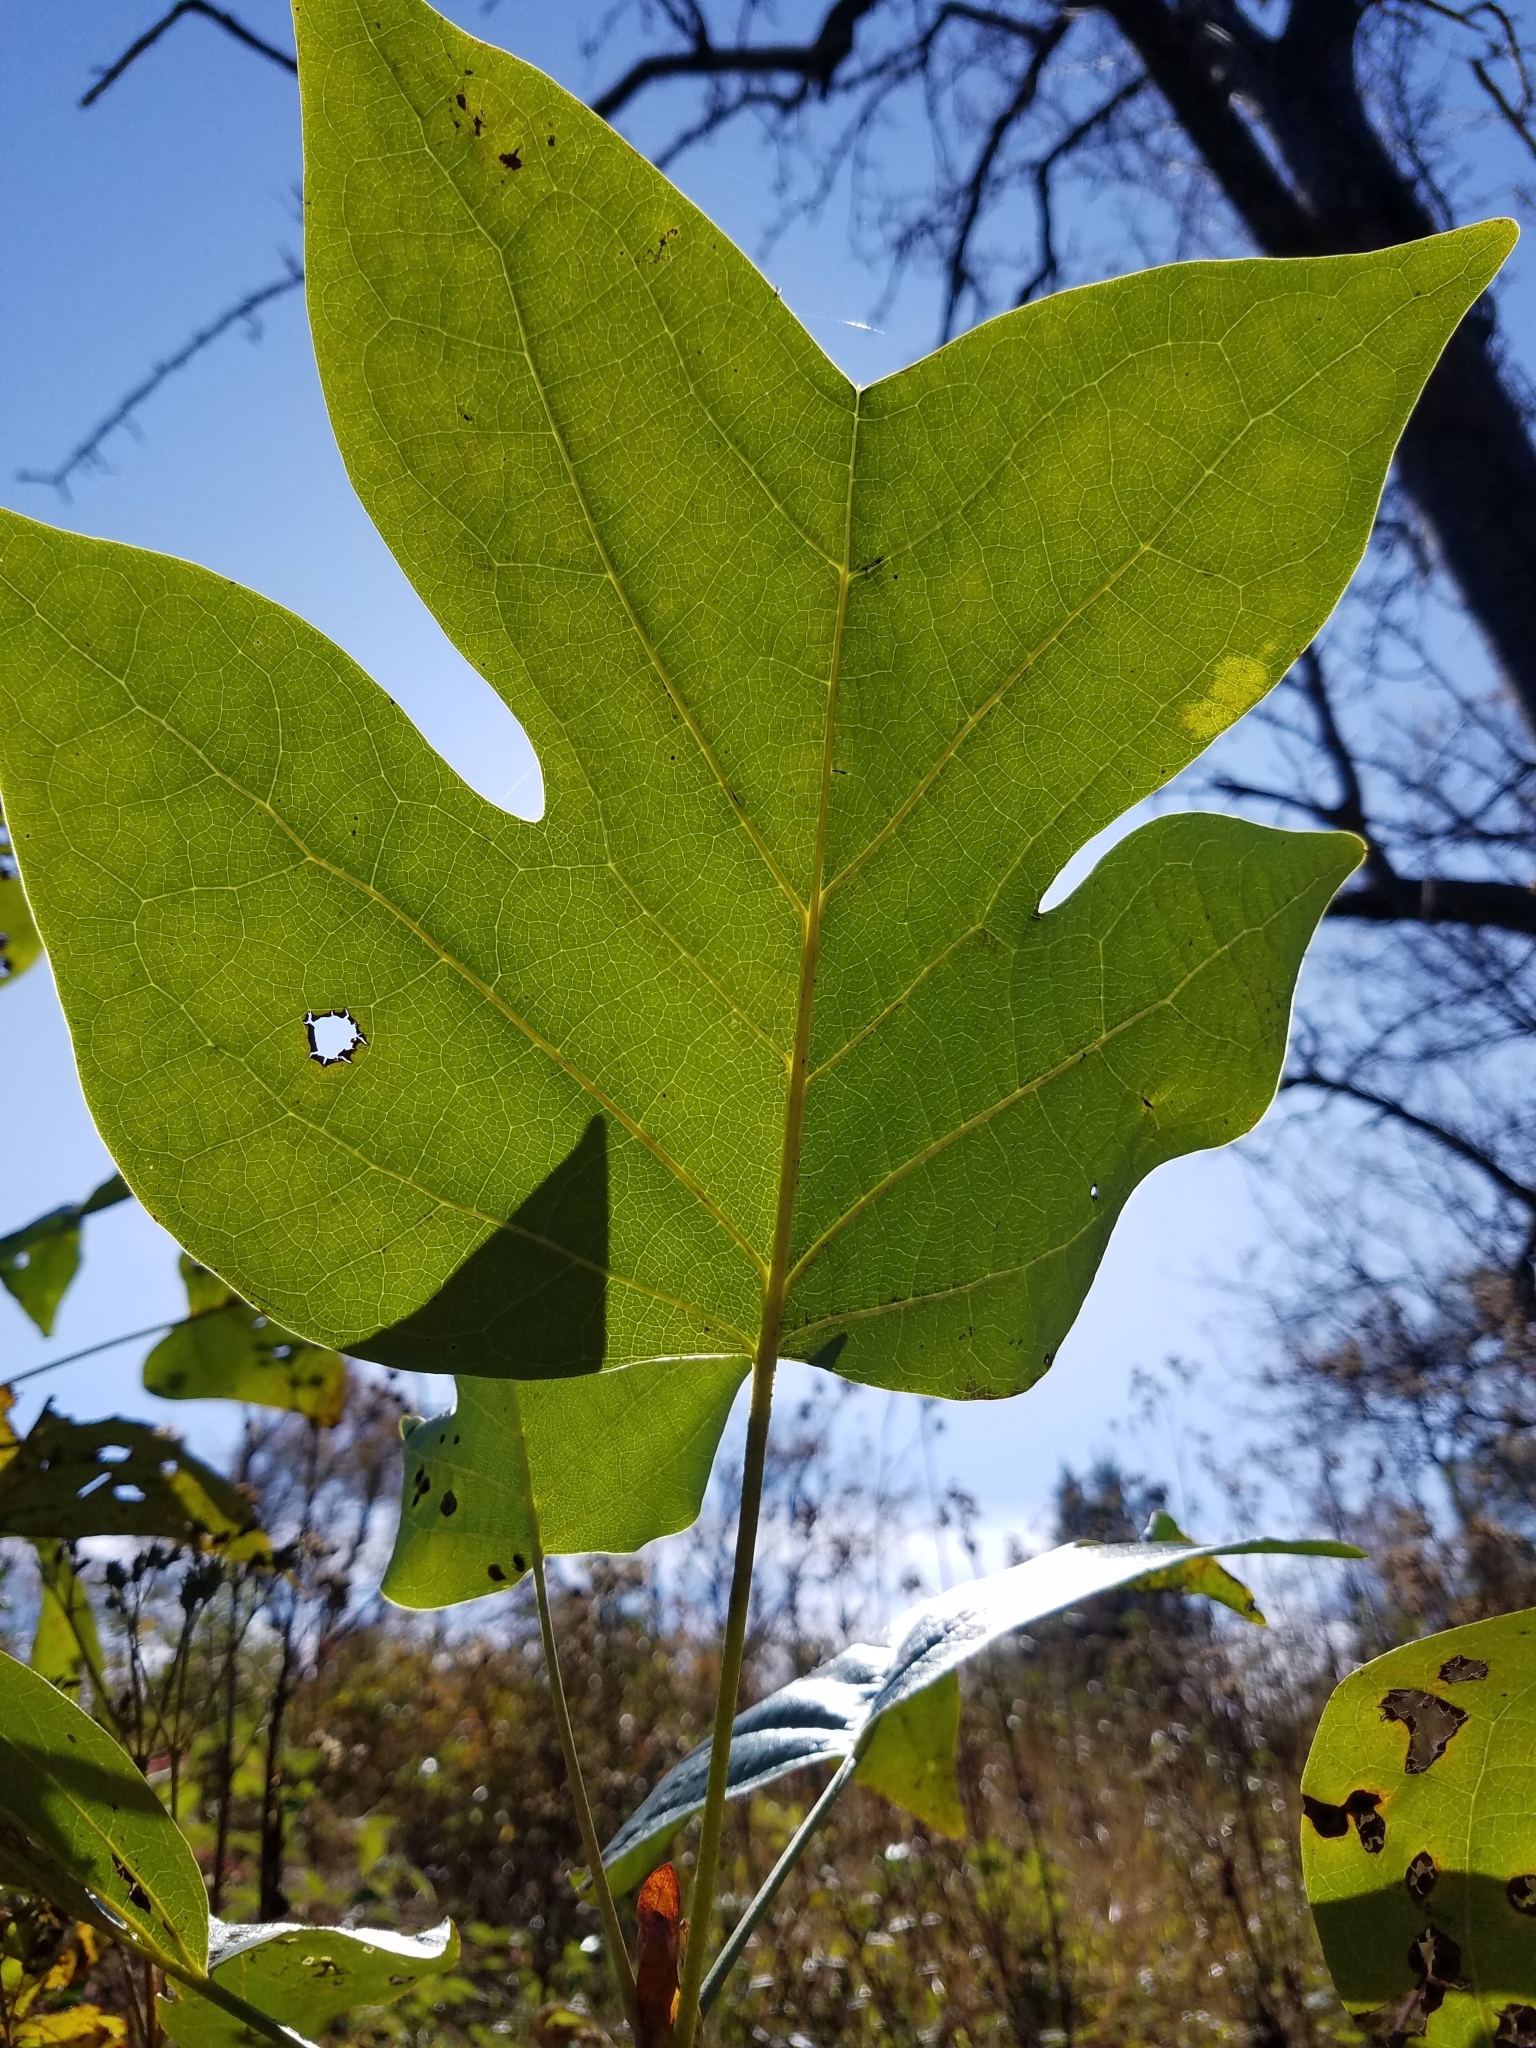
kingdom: Plantae
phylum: Tracheophyta
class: Magnoliopsida
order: Magnoliales
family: Magnoliaceae
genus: Liriodendron
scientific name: Liriodendron tulipifera
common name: Tulip tree
